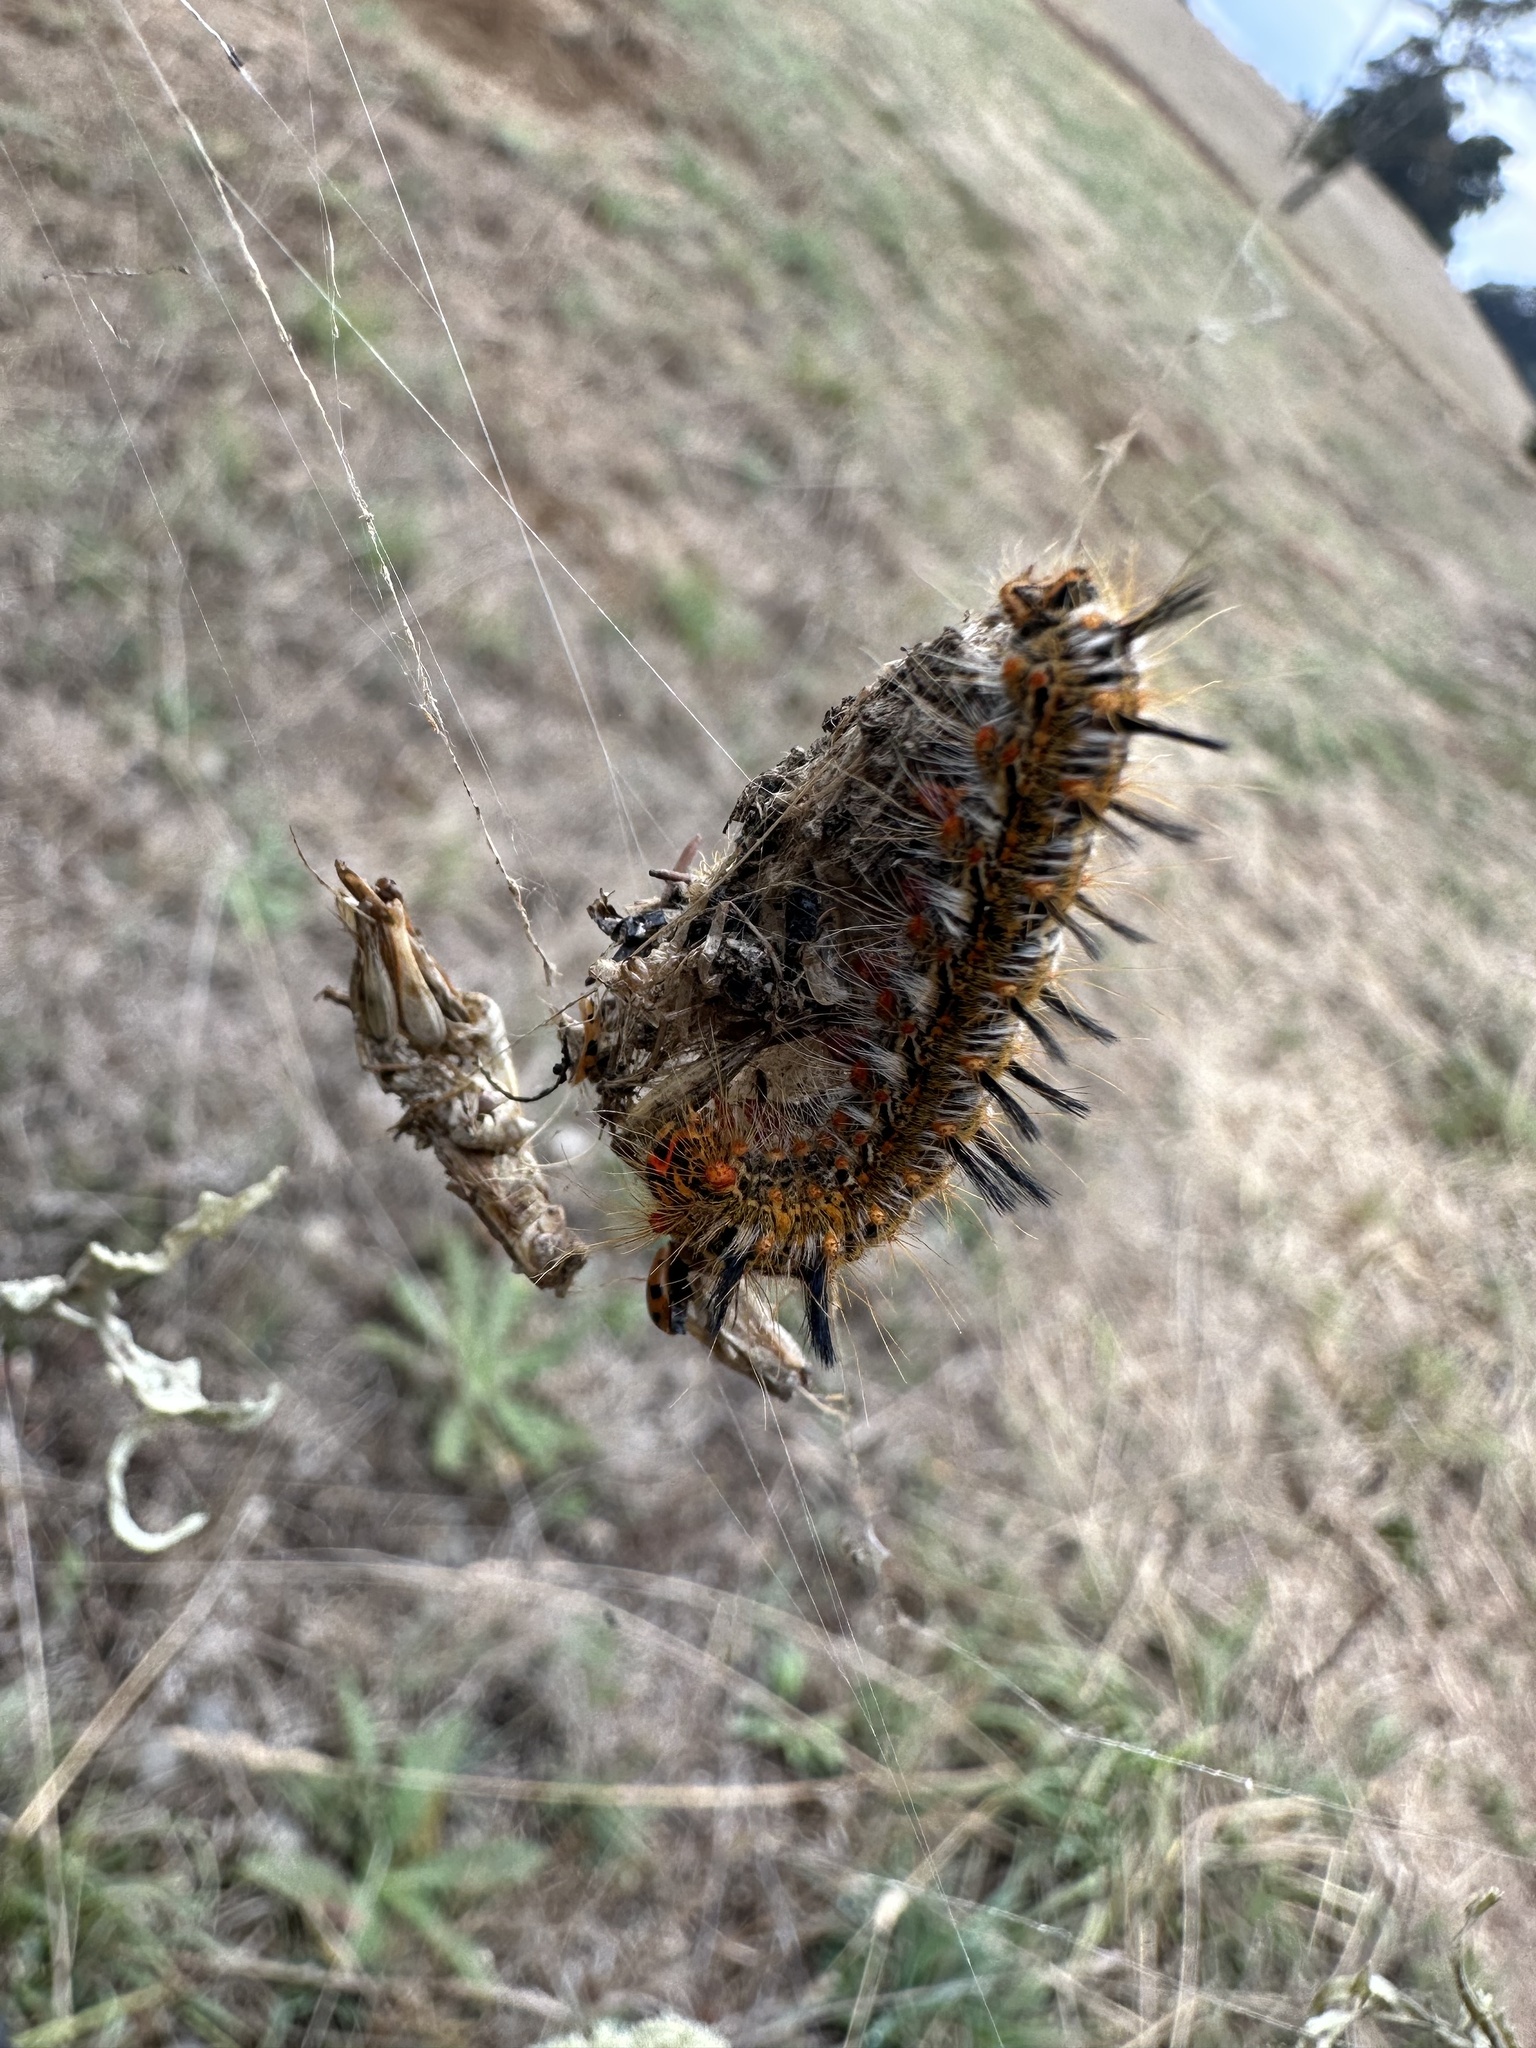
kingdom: Animalia
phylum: Arthropoda
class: Insecta
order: Lepidoptera
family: Lasiocampidae
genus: Macromphalia
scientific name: Macromphalia ancilla
